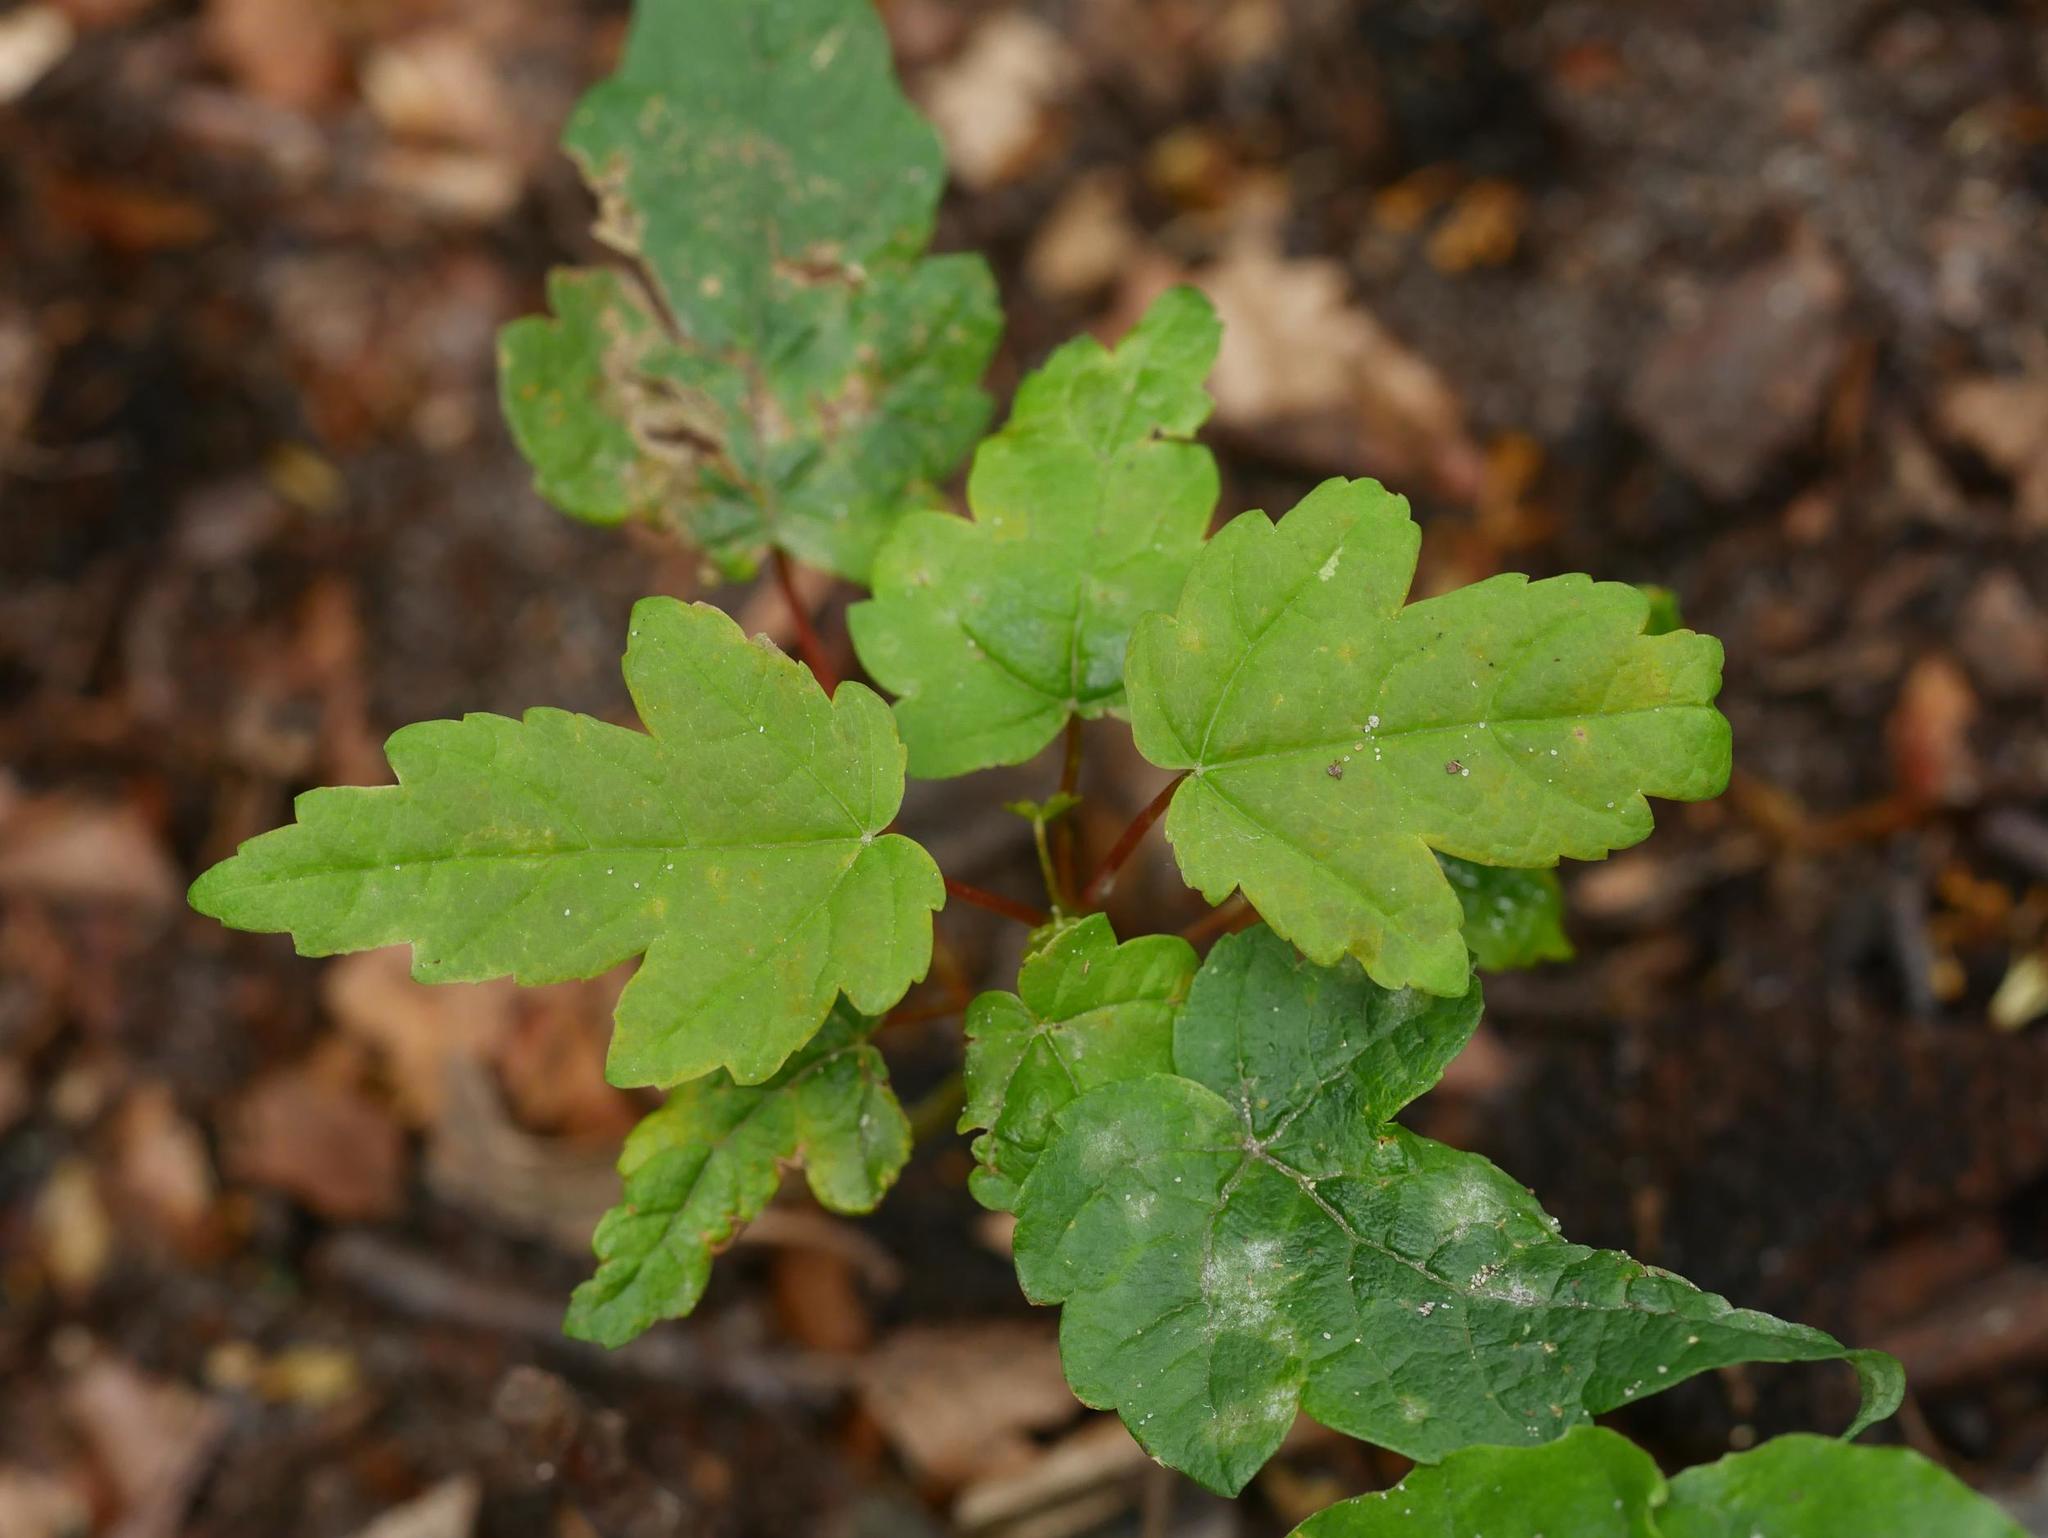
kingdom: Plantae
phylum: Tracheophyta
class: Magnoliopsida
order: Sapindales
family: Sapindaceae
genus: Acer
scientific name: Acer pseudoplatanus
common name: Sycamore
